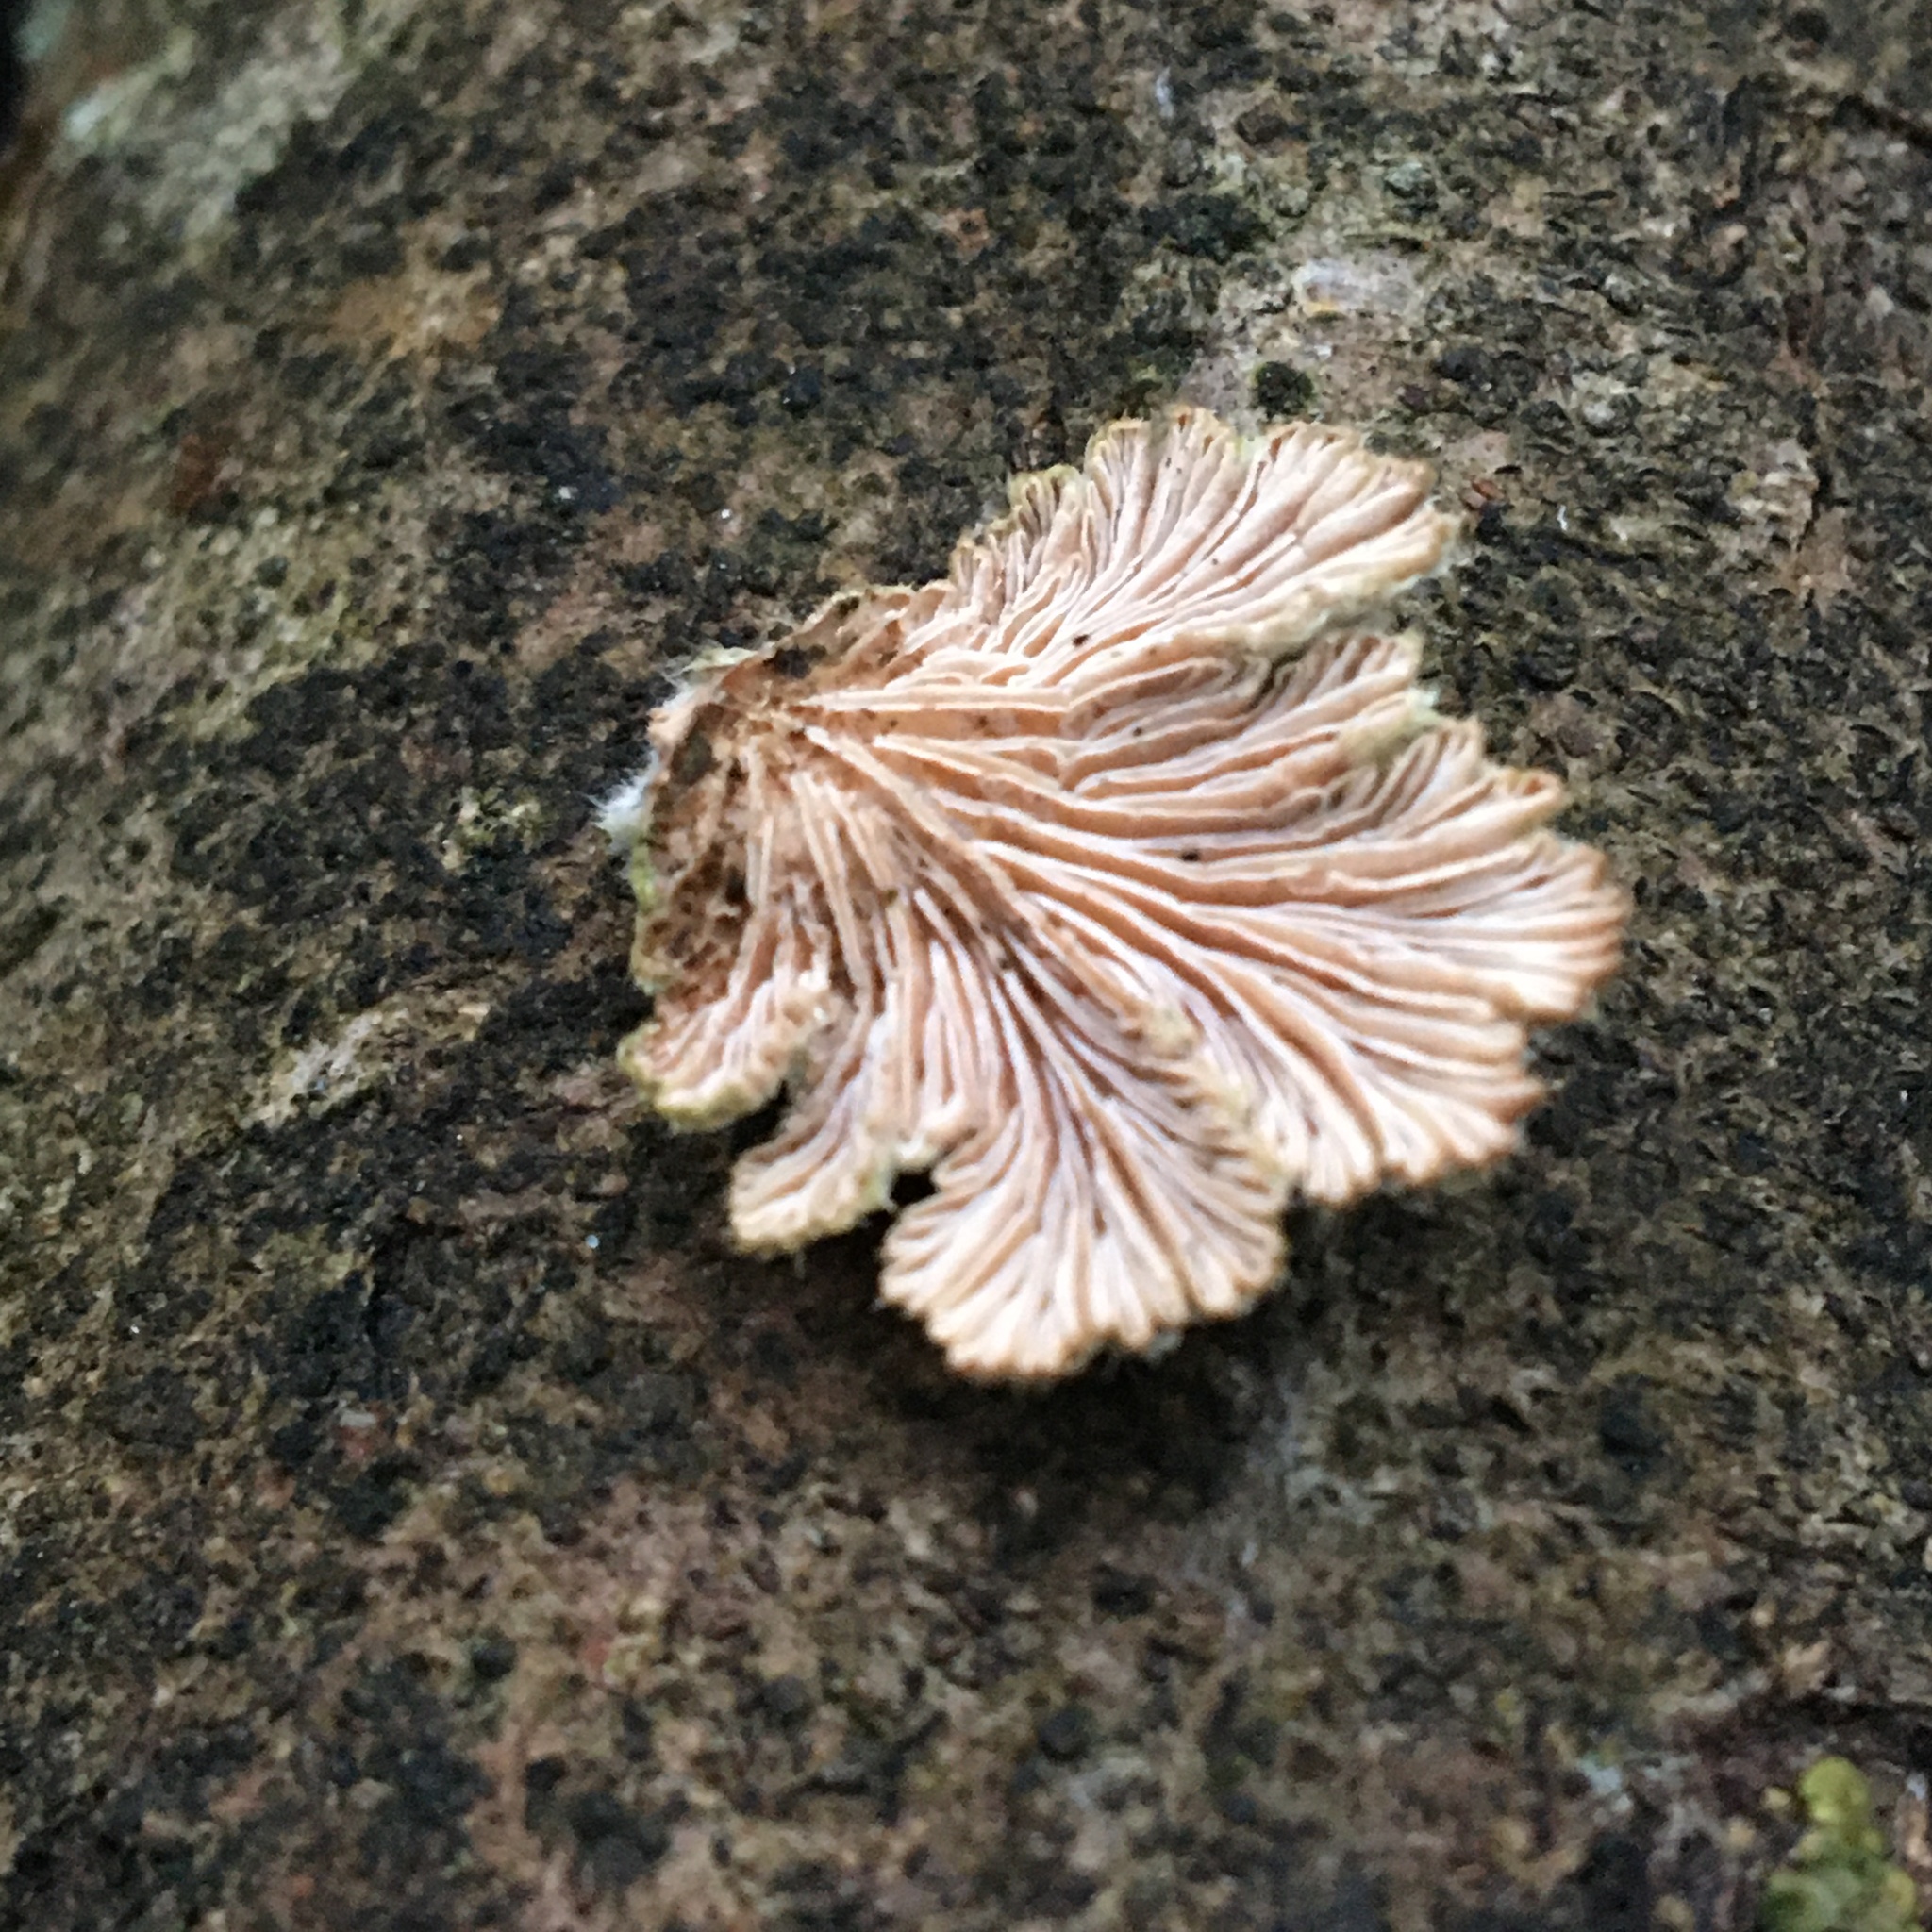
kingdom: Fungi
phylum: Basidiomycota
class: Agaricomycetes
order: Agaricales
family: Schizophyllaceae
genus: Schizophyllum
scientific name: Schizophyllum commune
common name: Common porecrust
